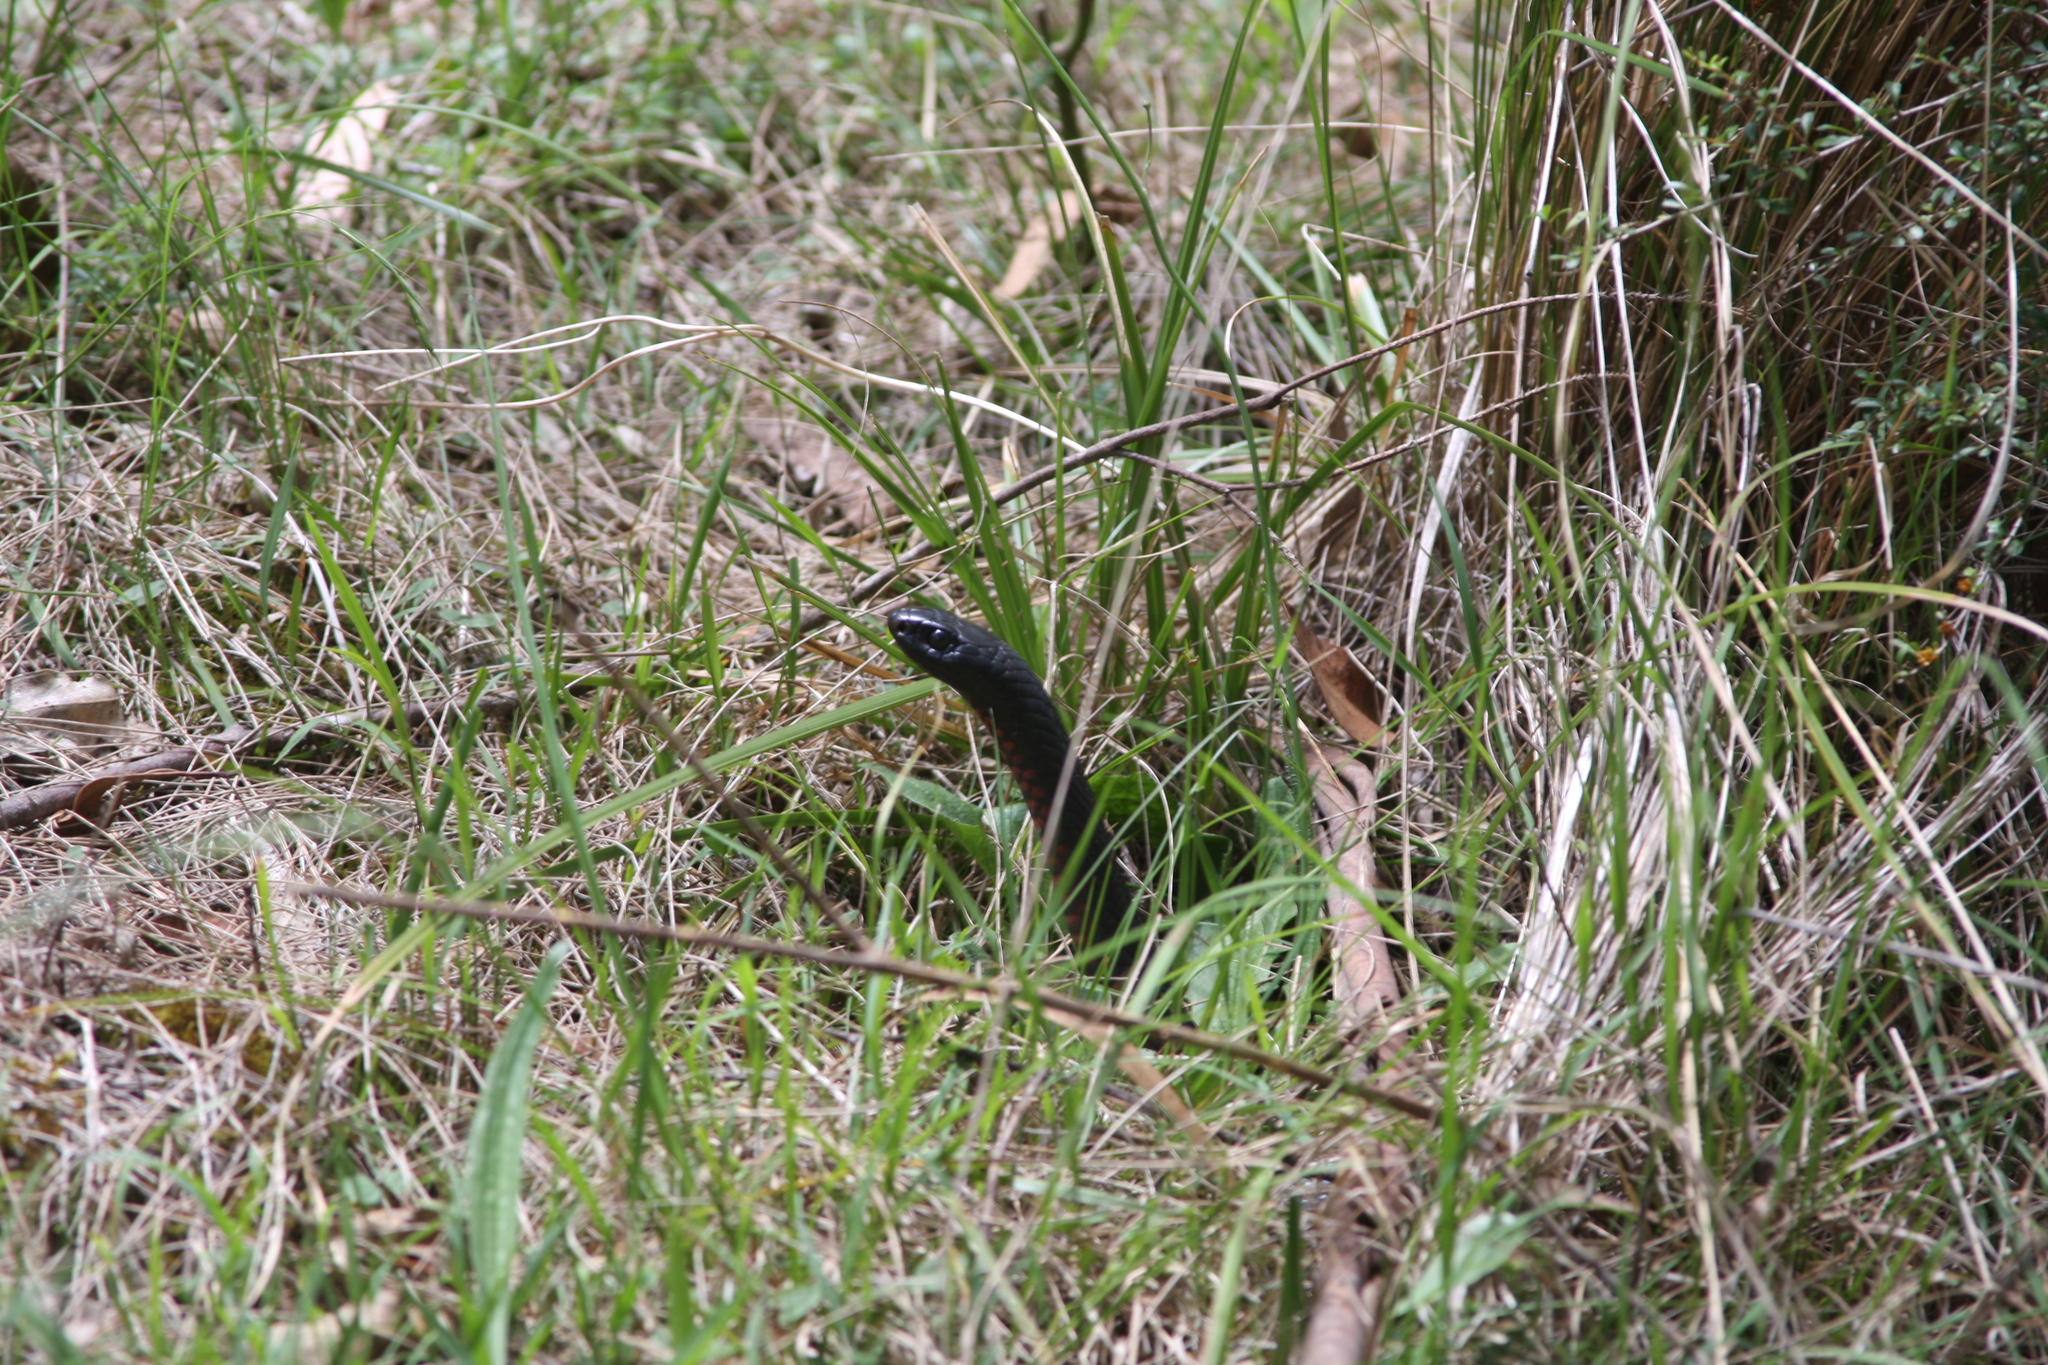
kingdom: Animalia
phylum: Chordata
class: Squamata
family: Elapidae
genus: Pseudechis
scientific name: Pseudechis porphyriacus
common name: Australian black snake
